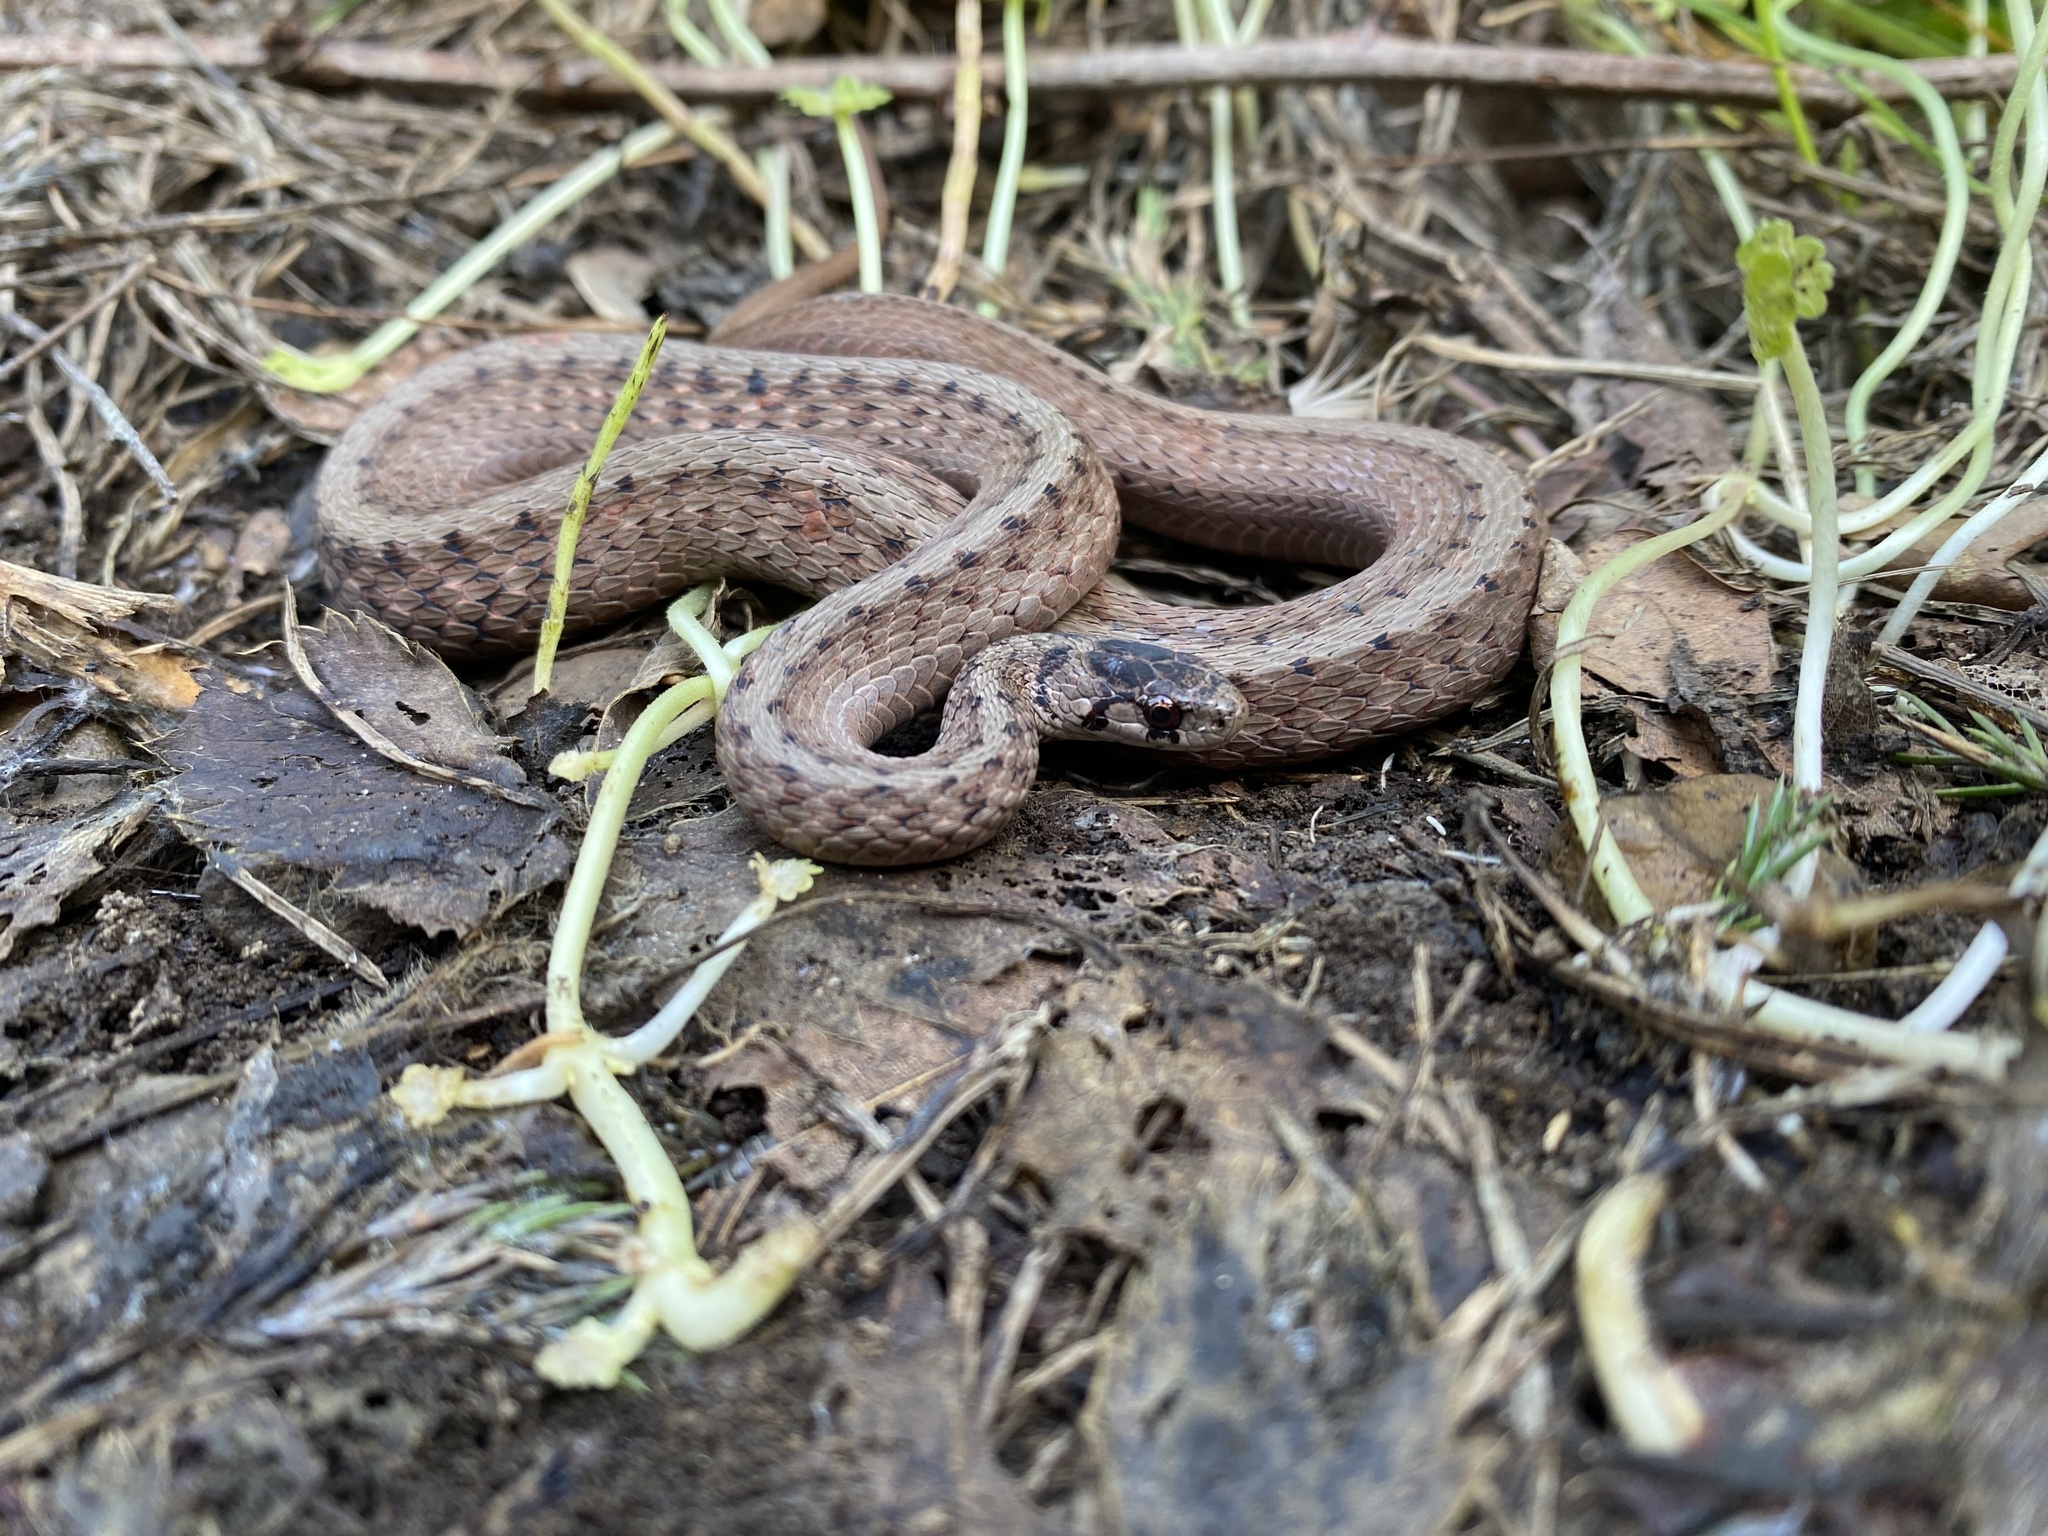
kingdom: Animalia
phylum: Chordata
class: Squamata
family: Colubridae
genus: Storeria
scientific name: Storeria dekayi
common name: (dekay’s) brown snake
